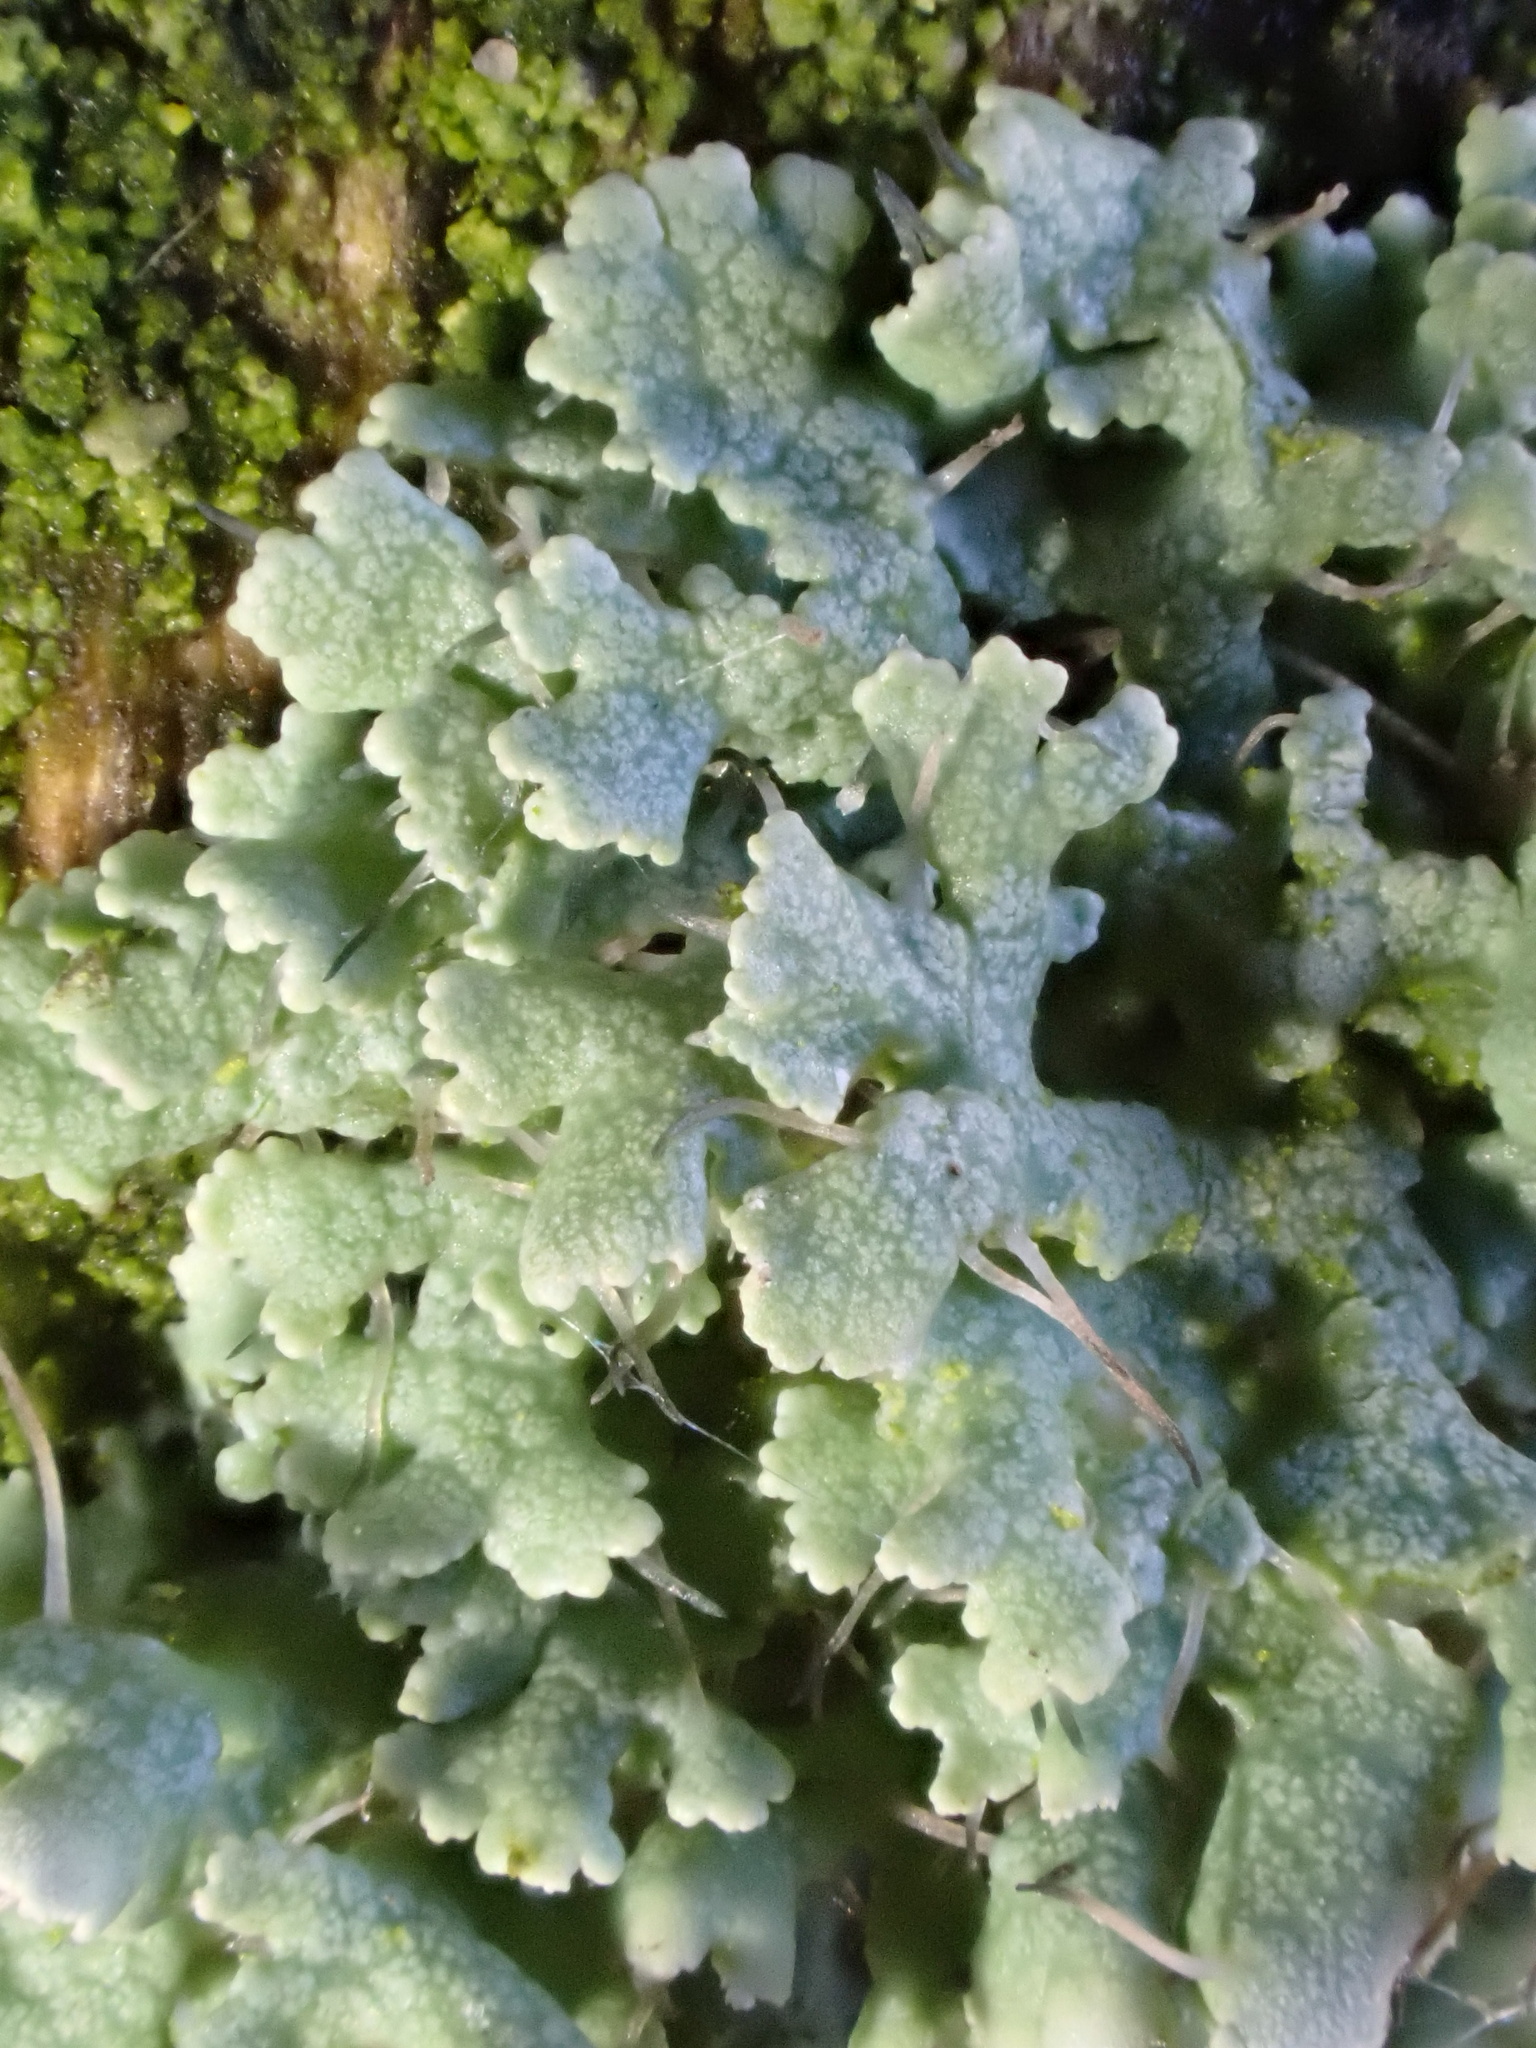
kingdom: Fungi
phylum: Ascomycota
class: Lecanoromycetes
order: Caliciales
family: Physciaceae
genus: Physcia
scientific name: Physcia adscendens
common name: Hooded rosette lichen
